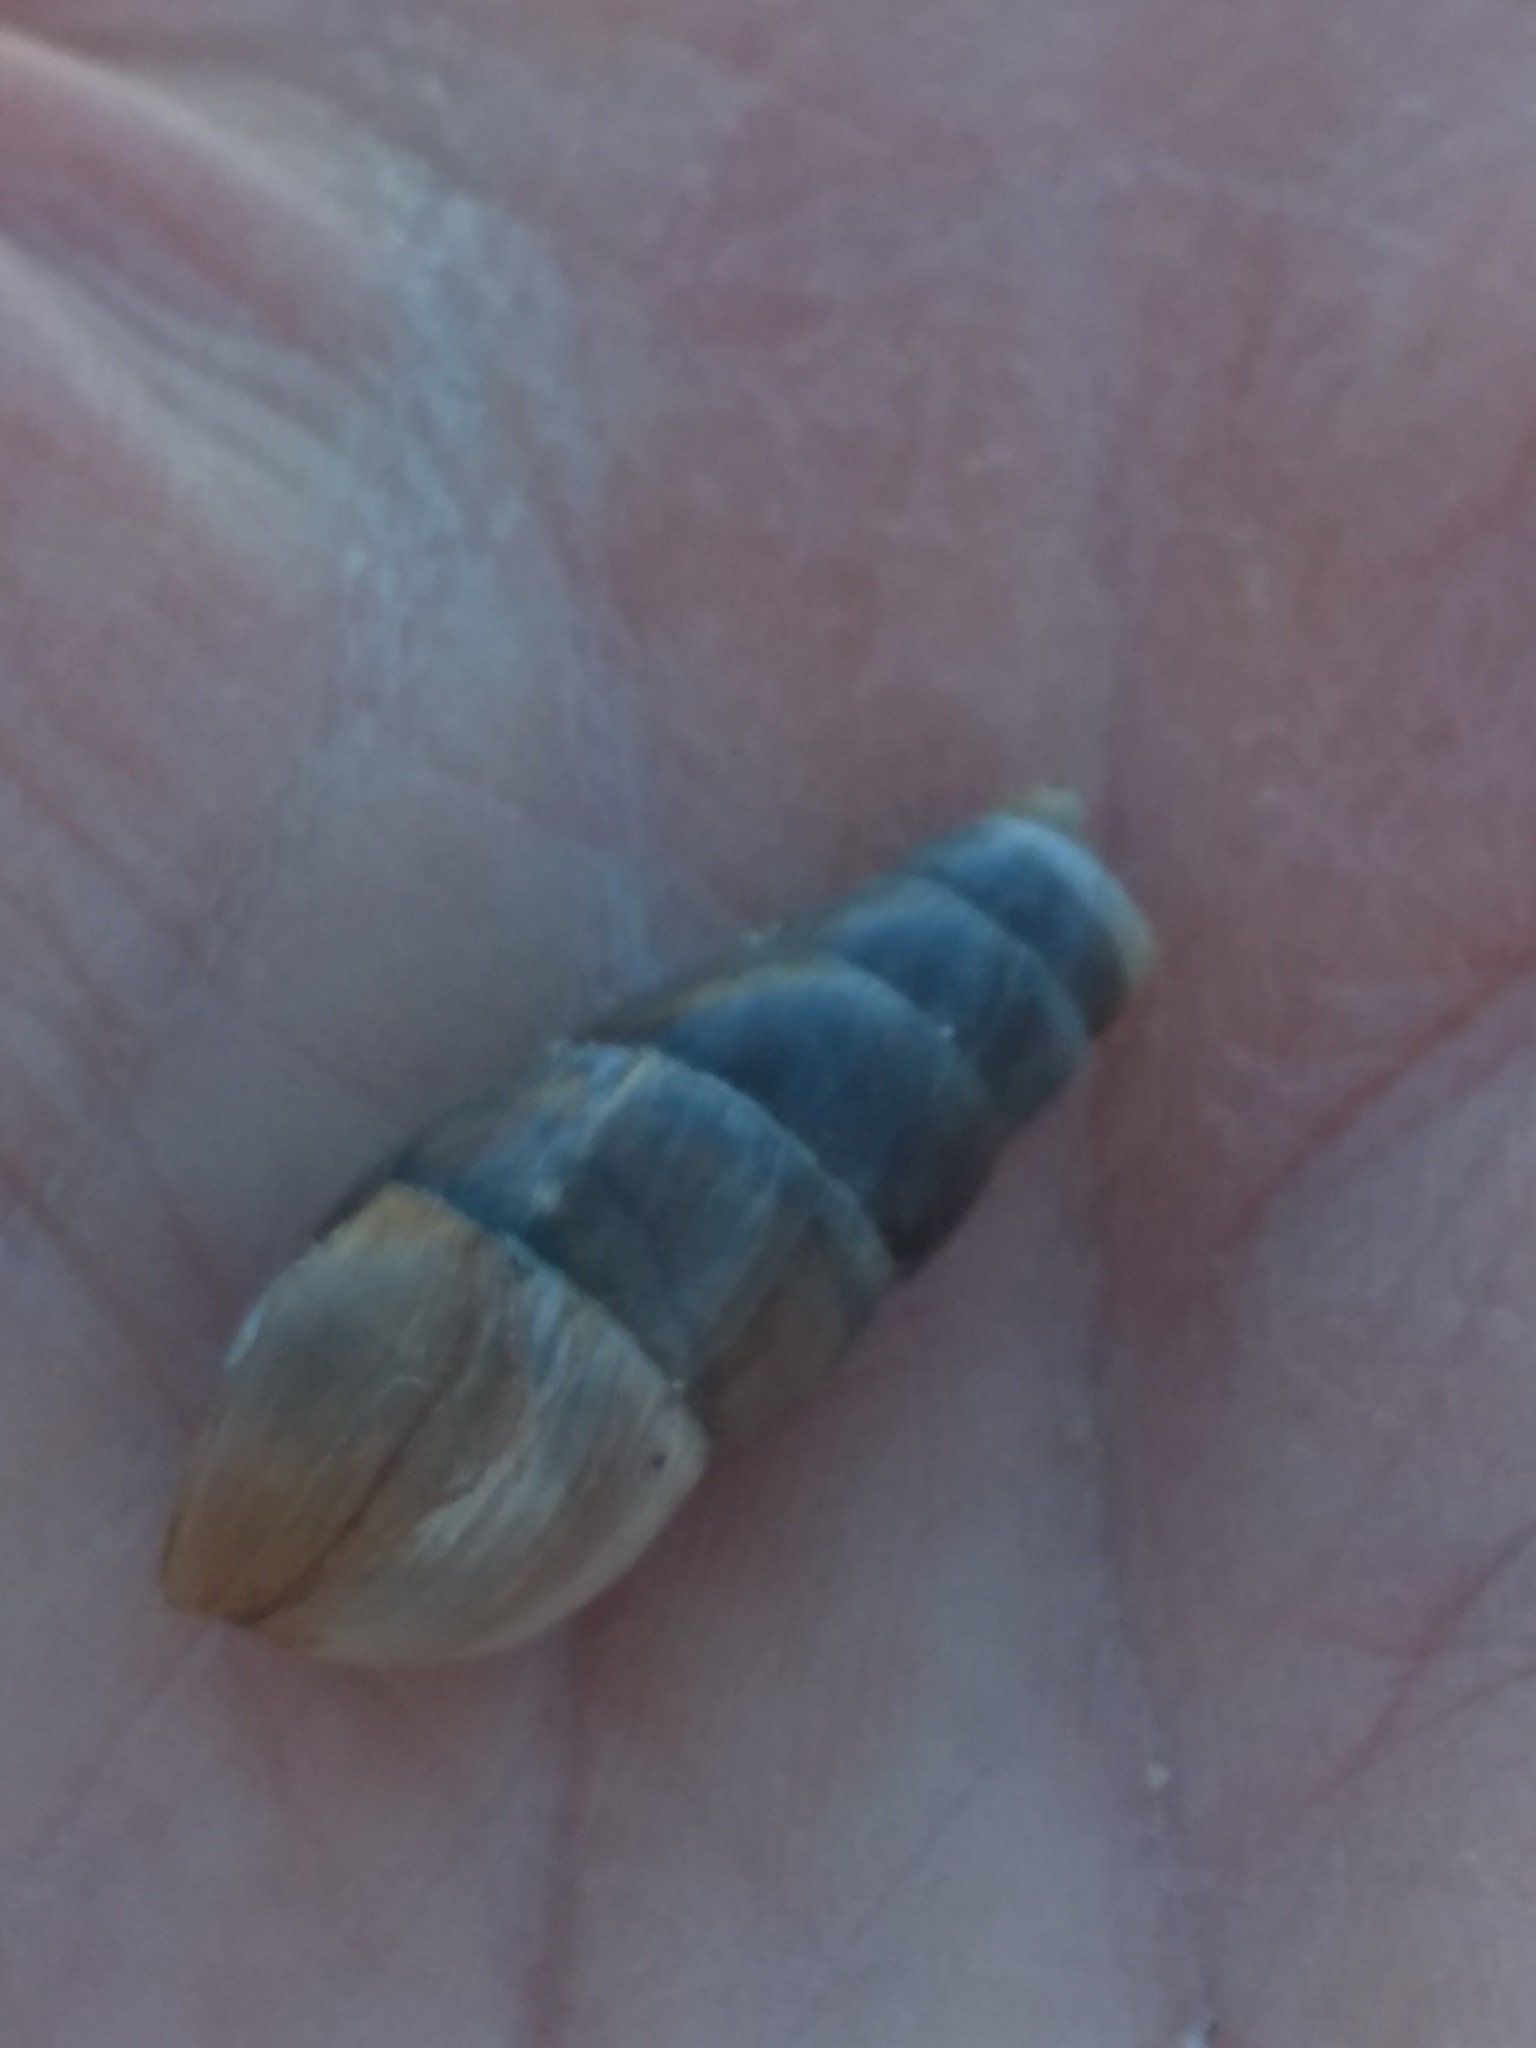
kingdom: Animalia
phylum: Mollusca
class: Gastropoda
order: Stylommatophora
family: Achatinidae
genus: Rumina
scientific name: Rumina decollata
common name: Decollate snail
